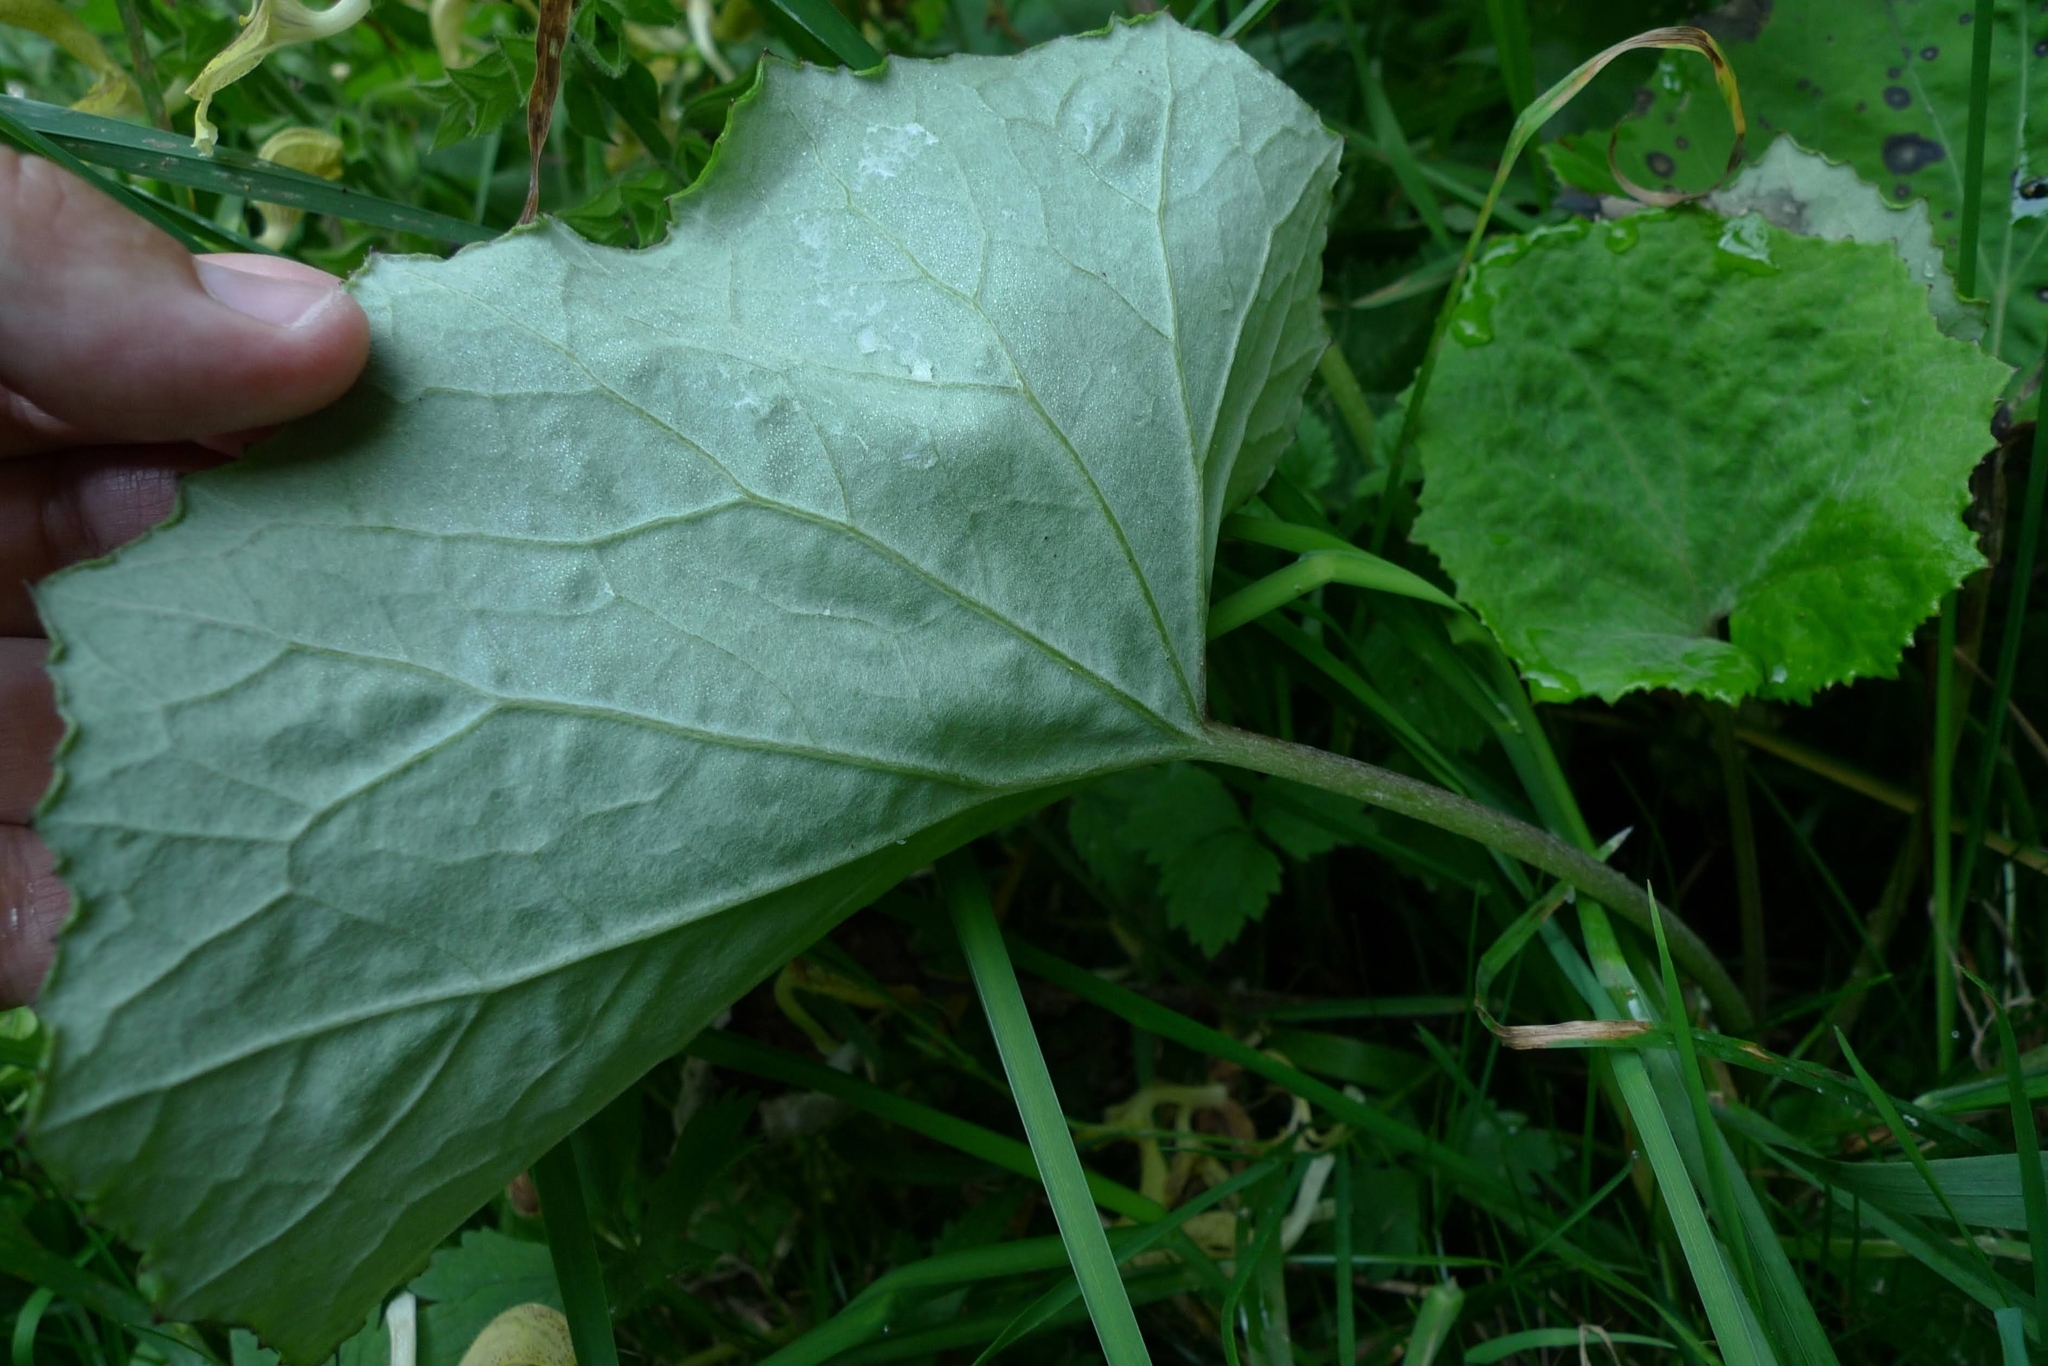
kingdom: Plantae
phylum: Tracheophyta
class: Magnoliopsida
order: Asterales
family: Asteraceae
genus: Tussilago
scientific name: Tussilago farfara
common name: Coltsfoot
